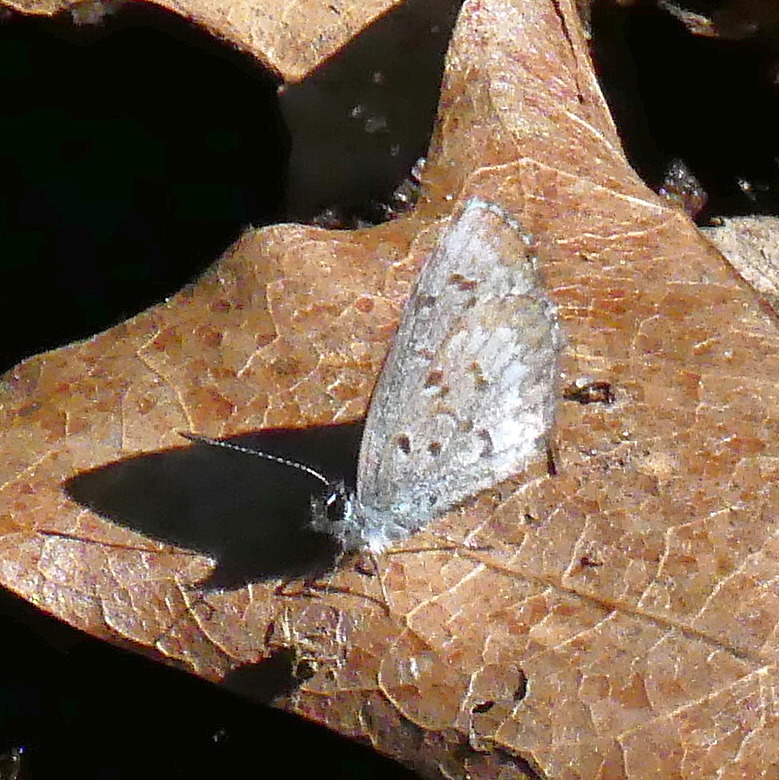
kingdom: Animalia
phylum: Arthropoda
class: Insecta
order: Lepidoptera
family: Lycaenidae
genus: Celastrina
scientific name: Celastrina lucia
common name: Lucia azure
